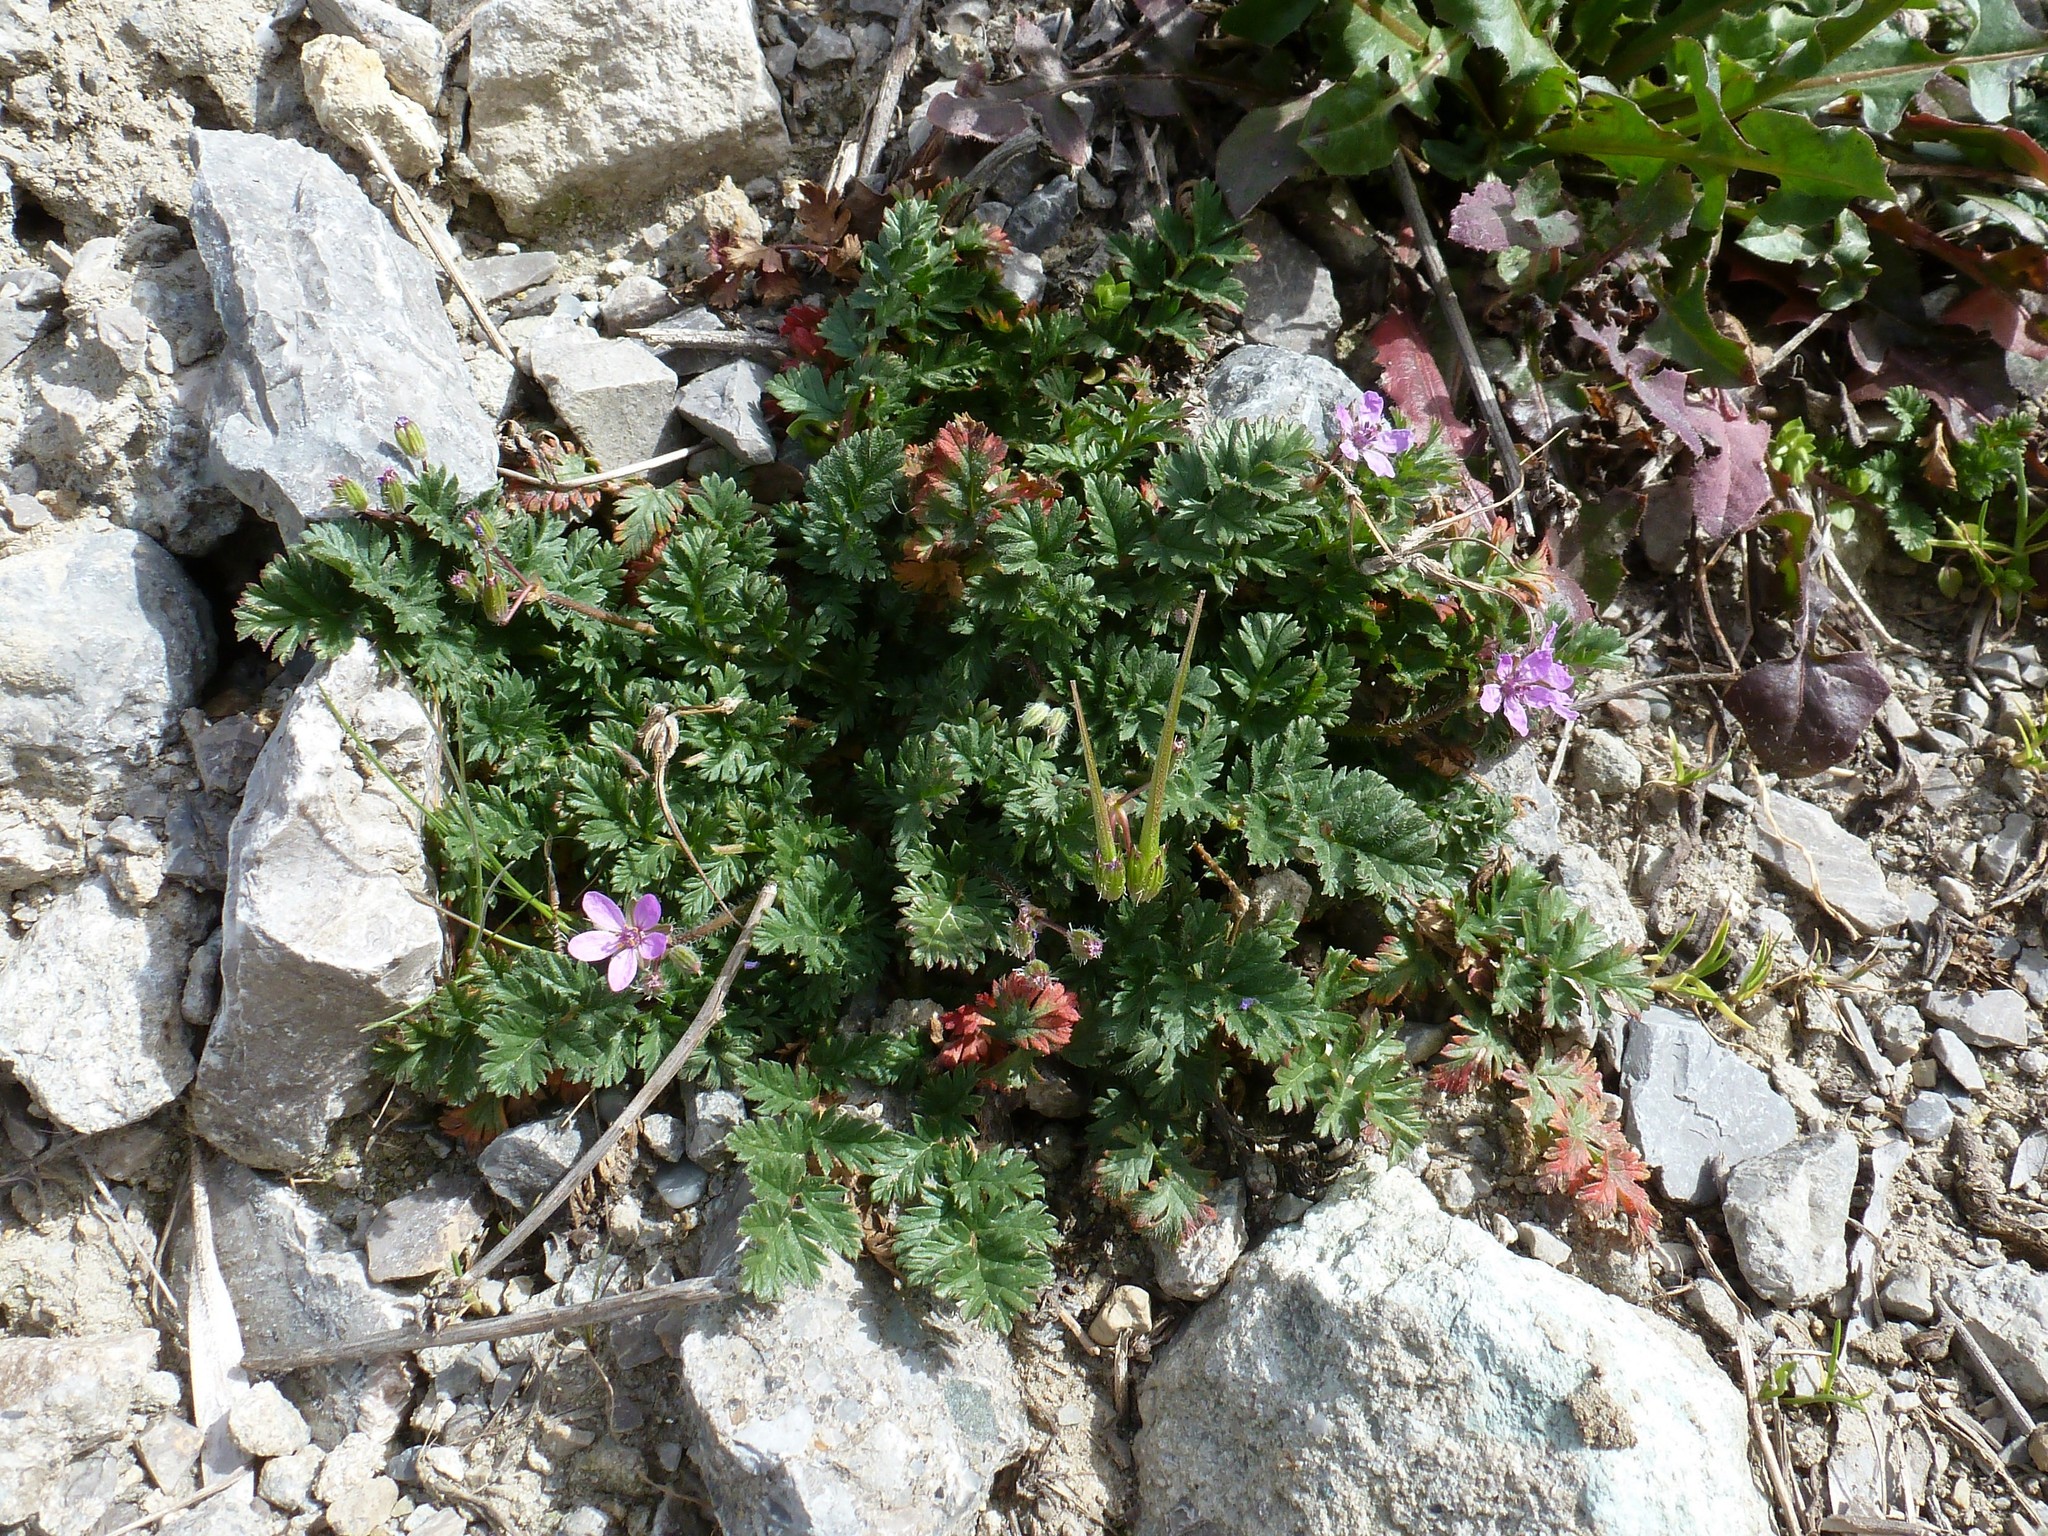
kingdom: Plantae
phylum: Tracheophyta
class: Magnoliopsida
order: Geraniales
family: Geraniaceae
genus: Erodium
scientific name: Erodium cicutarium
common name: Common stork's-bill
